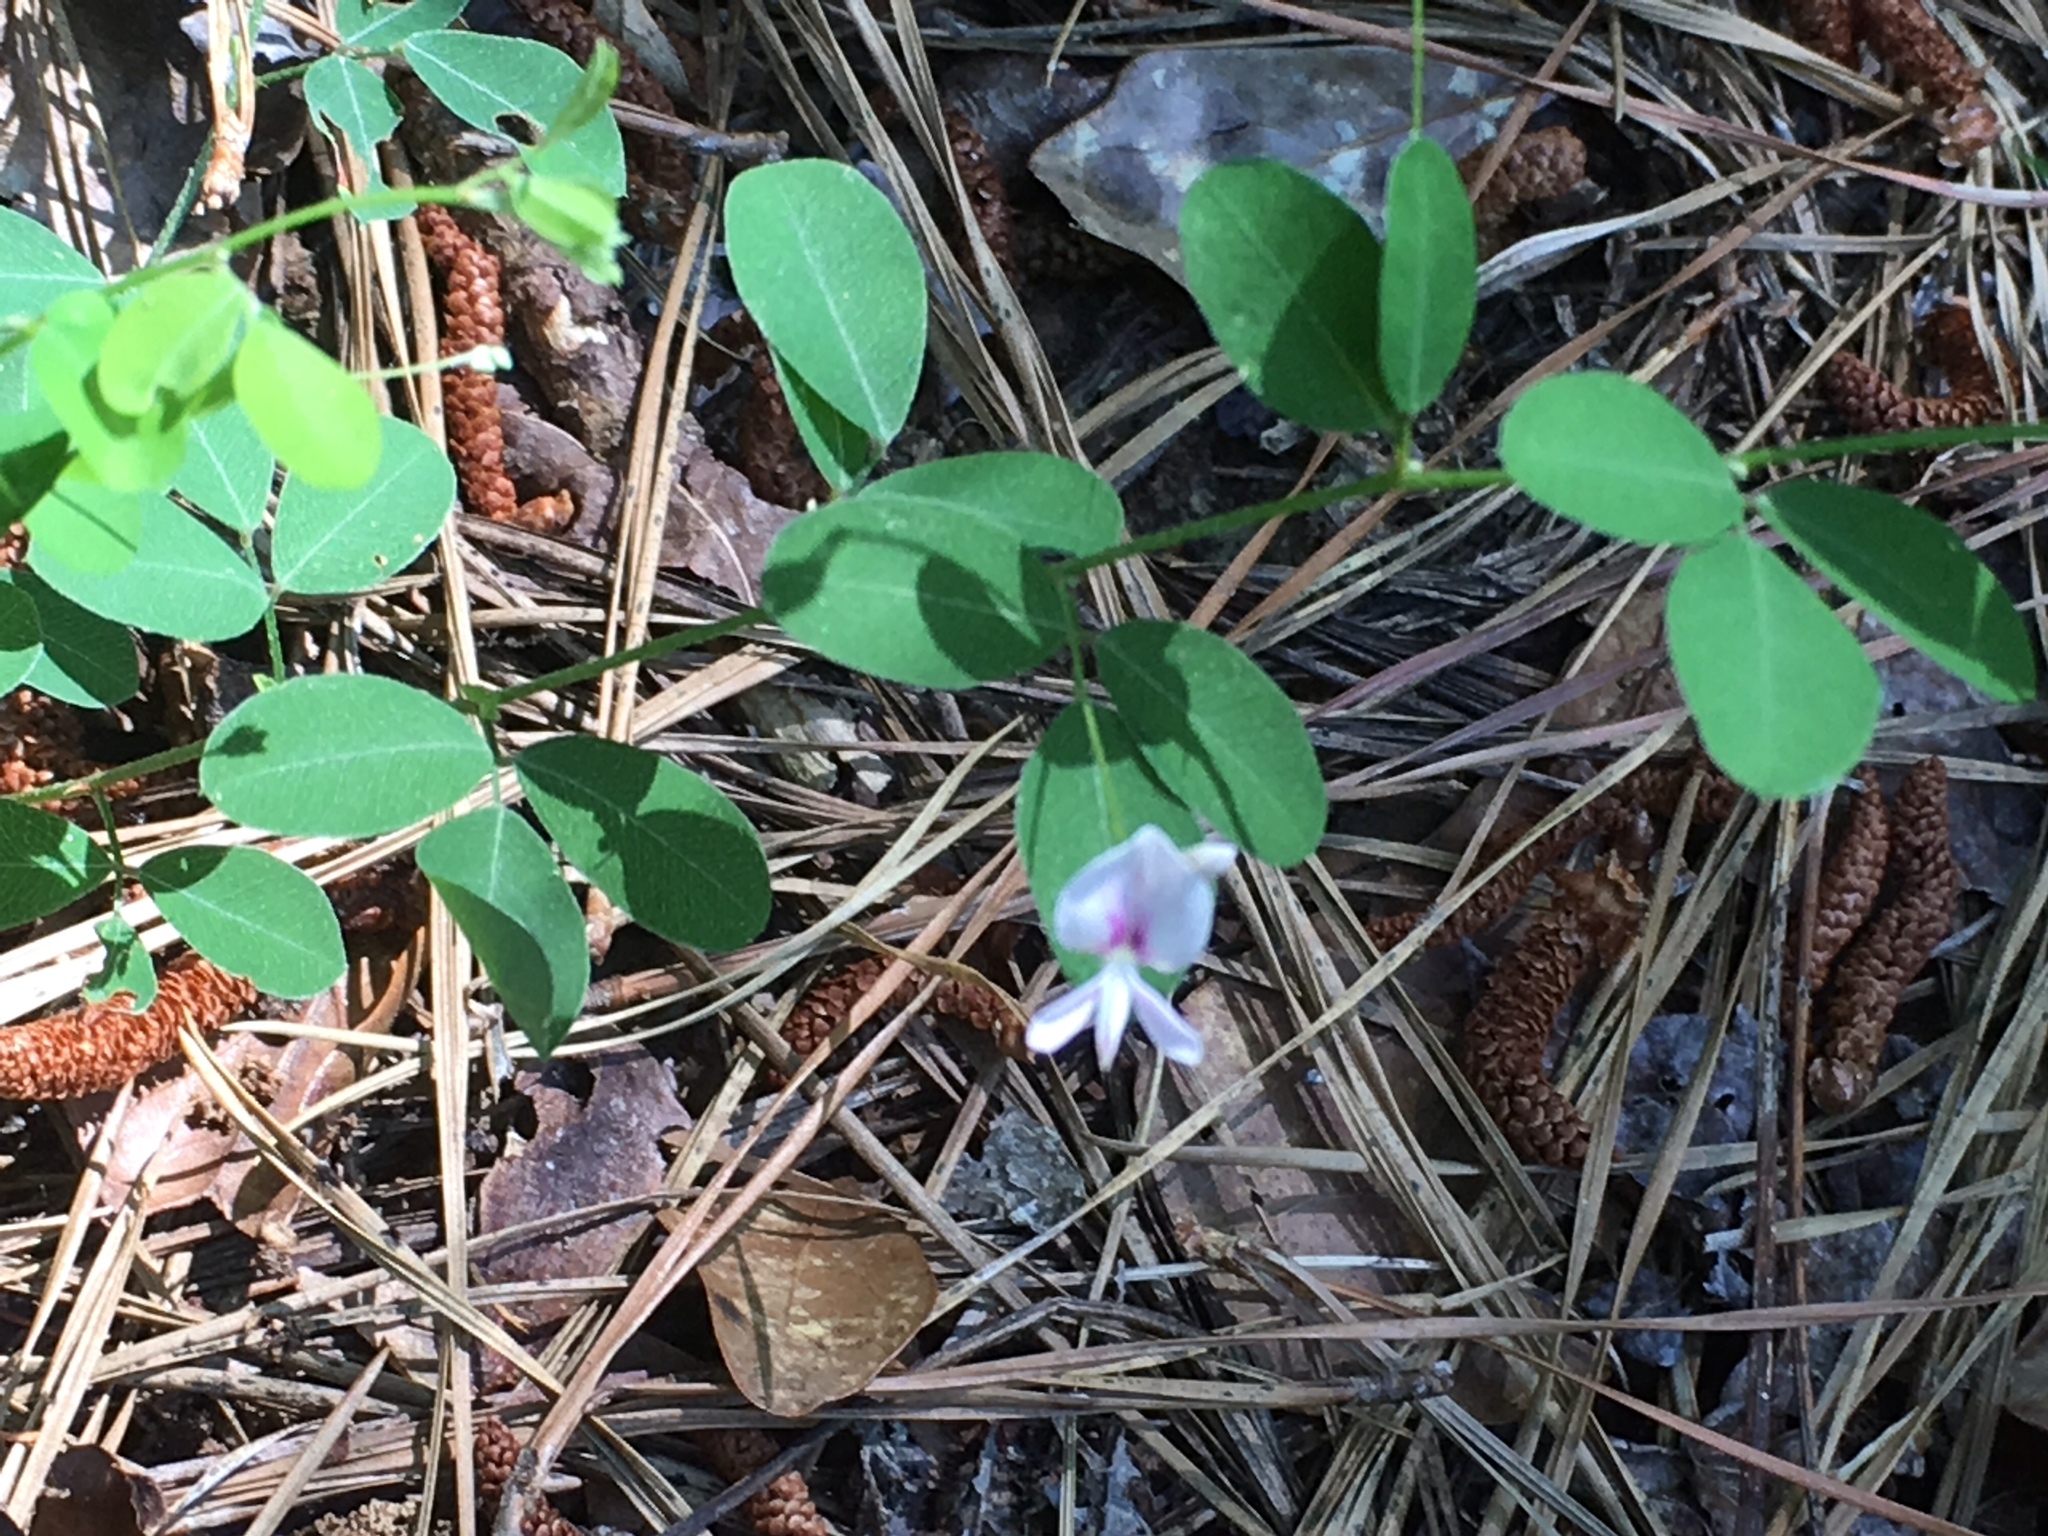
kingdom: Plantae
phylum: Tracheophyta
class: Magnoliopsida
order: Fabales
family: Fabaceae
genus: Lespedeza
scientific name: Lespedeza repens
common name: Creeping bush-clover
